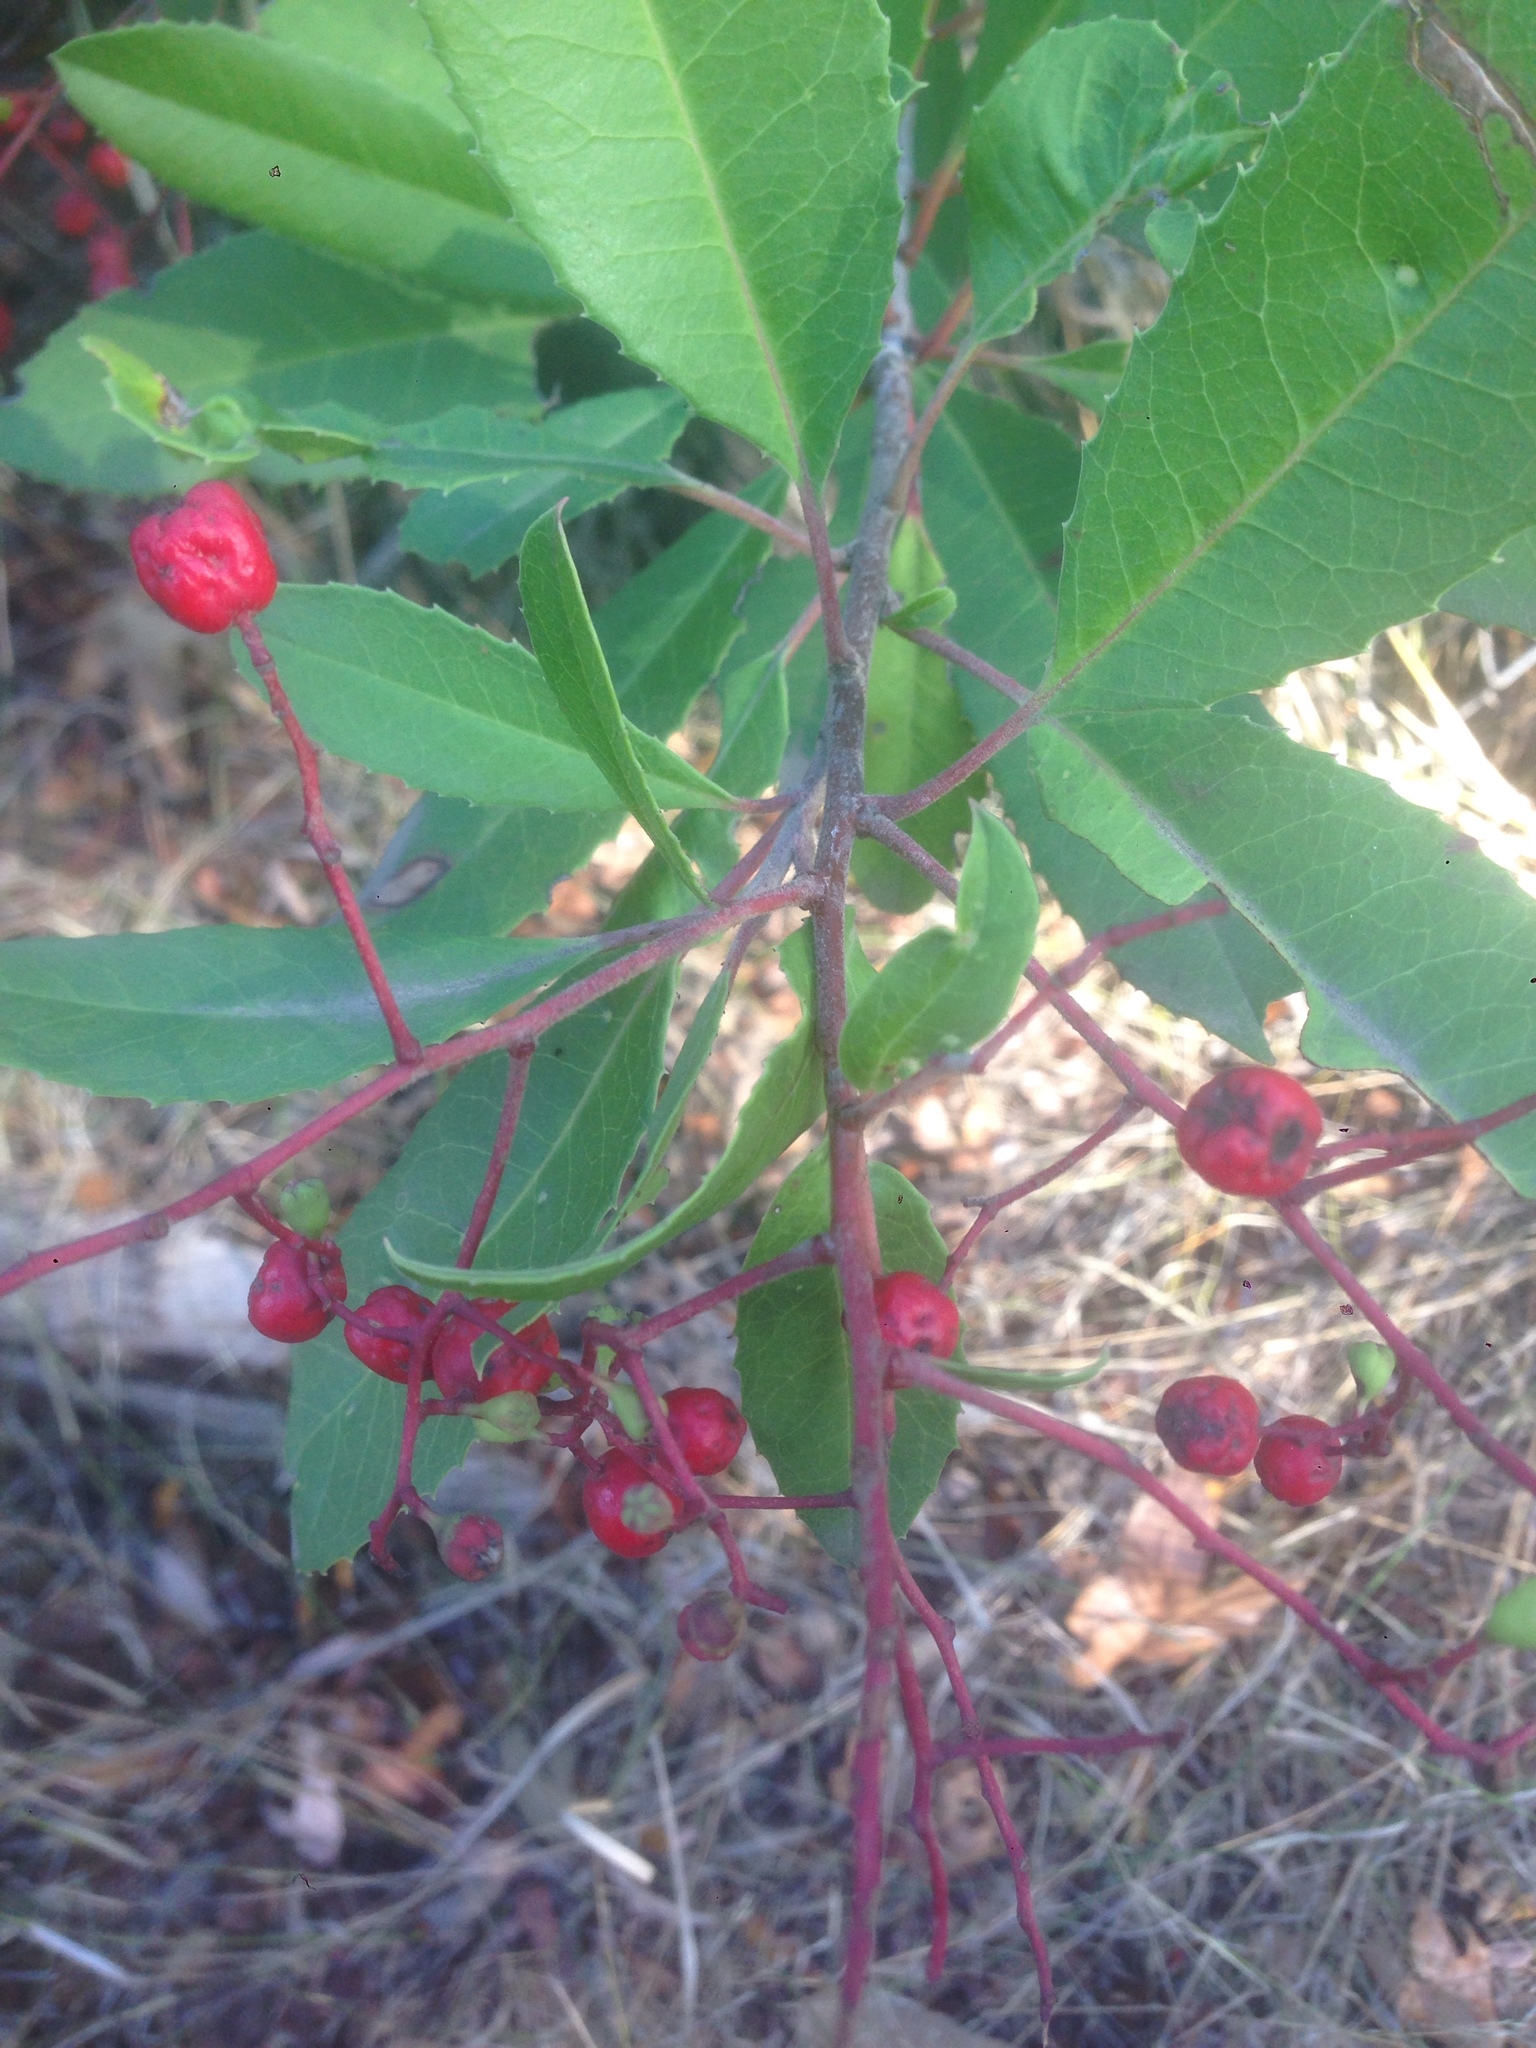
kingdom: Plantae
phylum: Tracheophyta
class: Magnoliopsida
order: Rosales
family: Rosaceae
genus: Heteromeles
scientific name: Heteromeles arbutifolia
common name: California-holly
